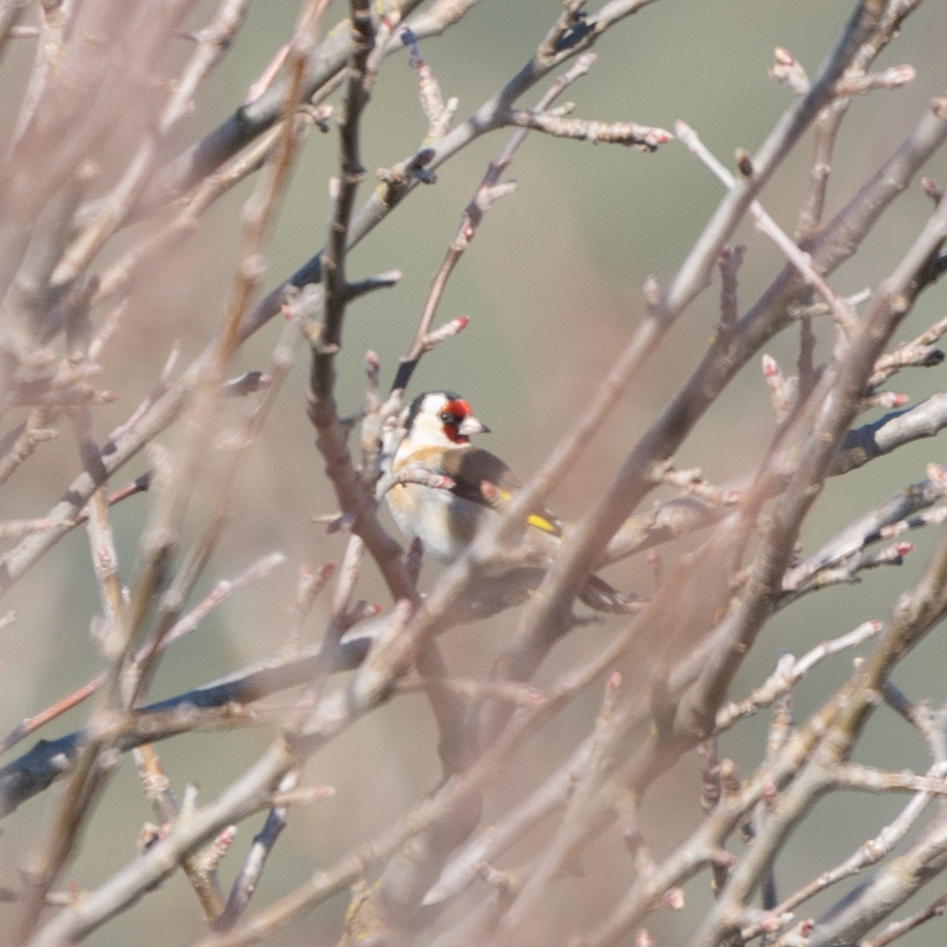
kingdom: Animalia
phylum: Chordata
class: Aves
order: Passeriformes
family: Fringillidae
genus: Carduelis
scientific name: Carduelis carduelis
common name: European goldfinch
